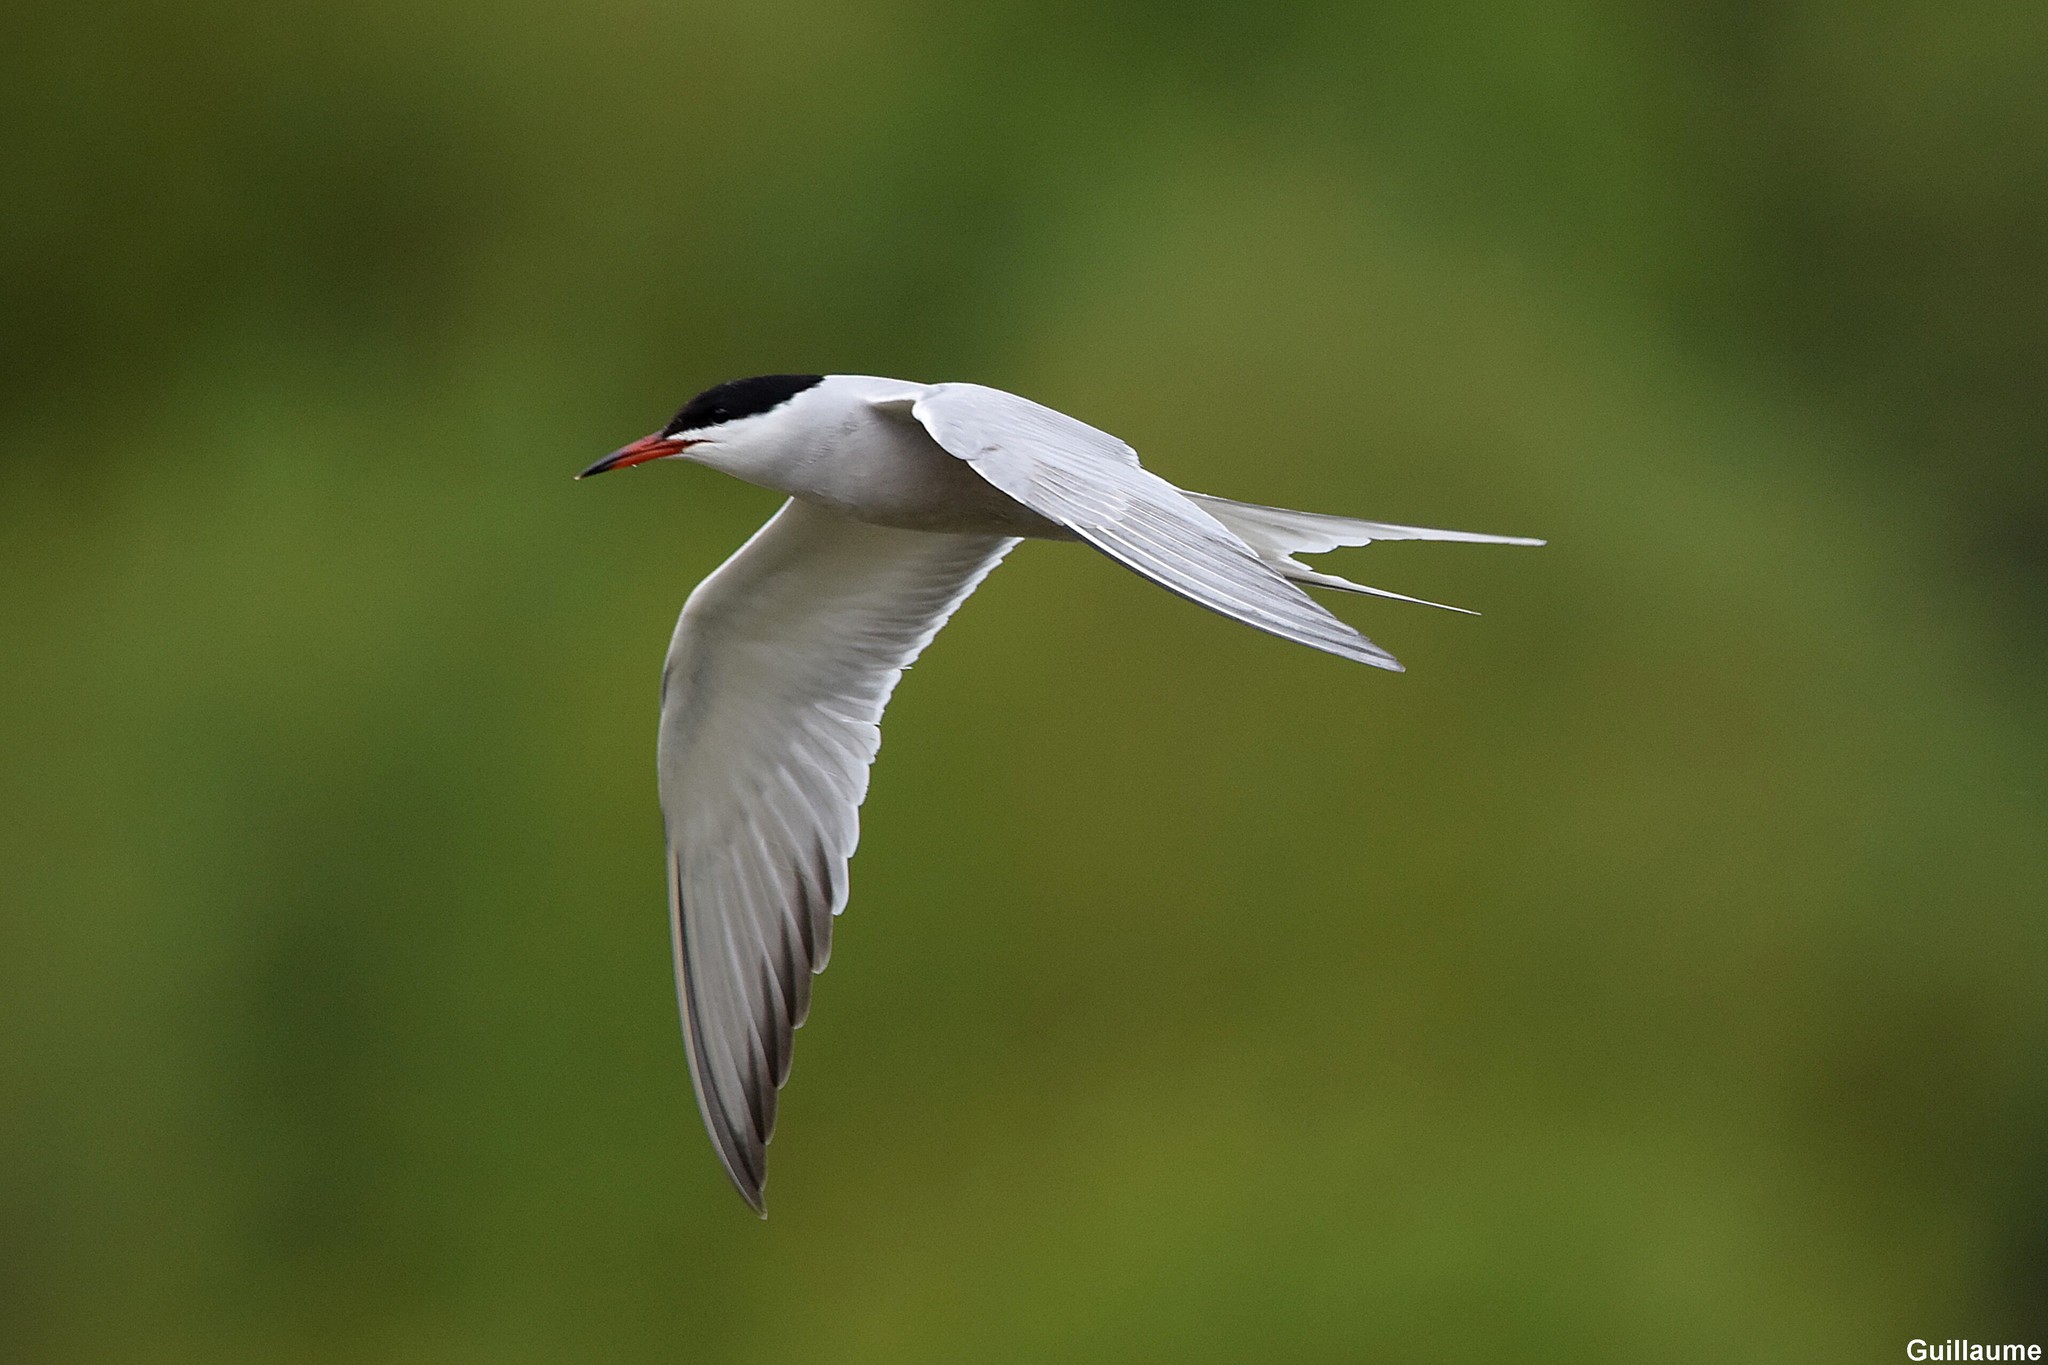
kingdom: Animalia
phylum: Chordata
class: Aves
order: Charadriiformes
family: Laridae
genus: Sterna
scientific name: Sterna hirundo
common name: Common tern
